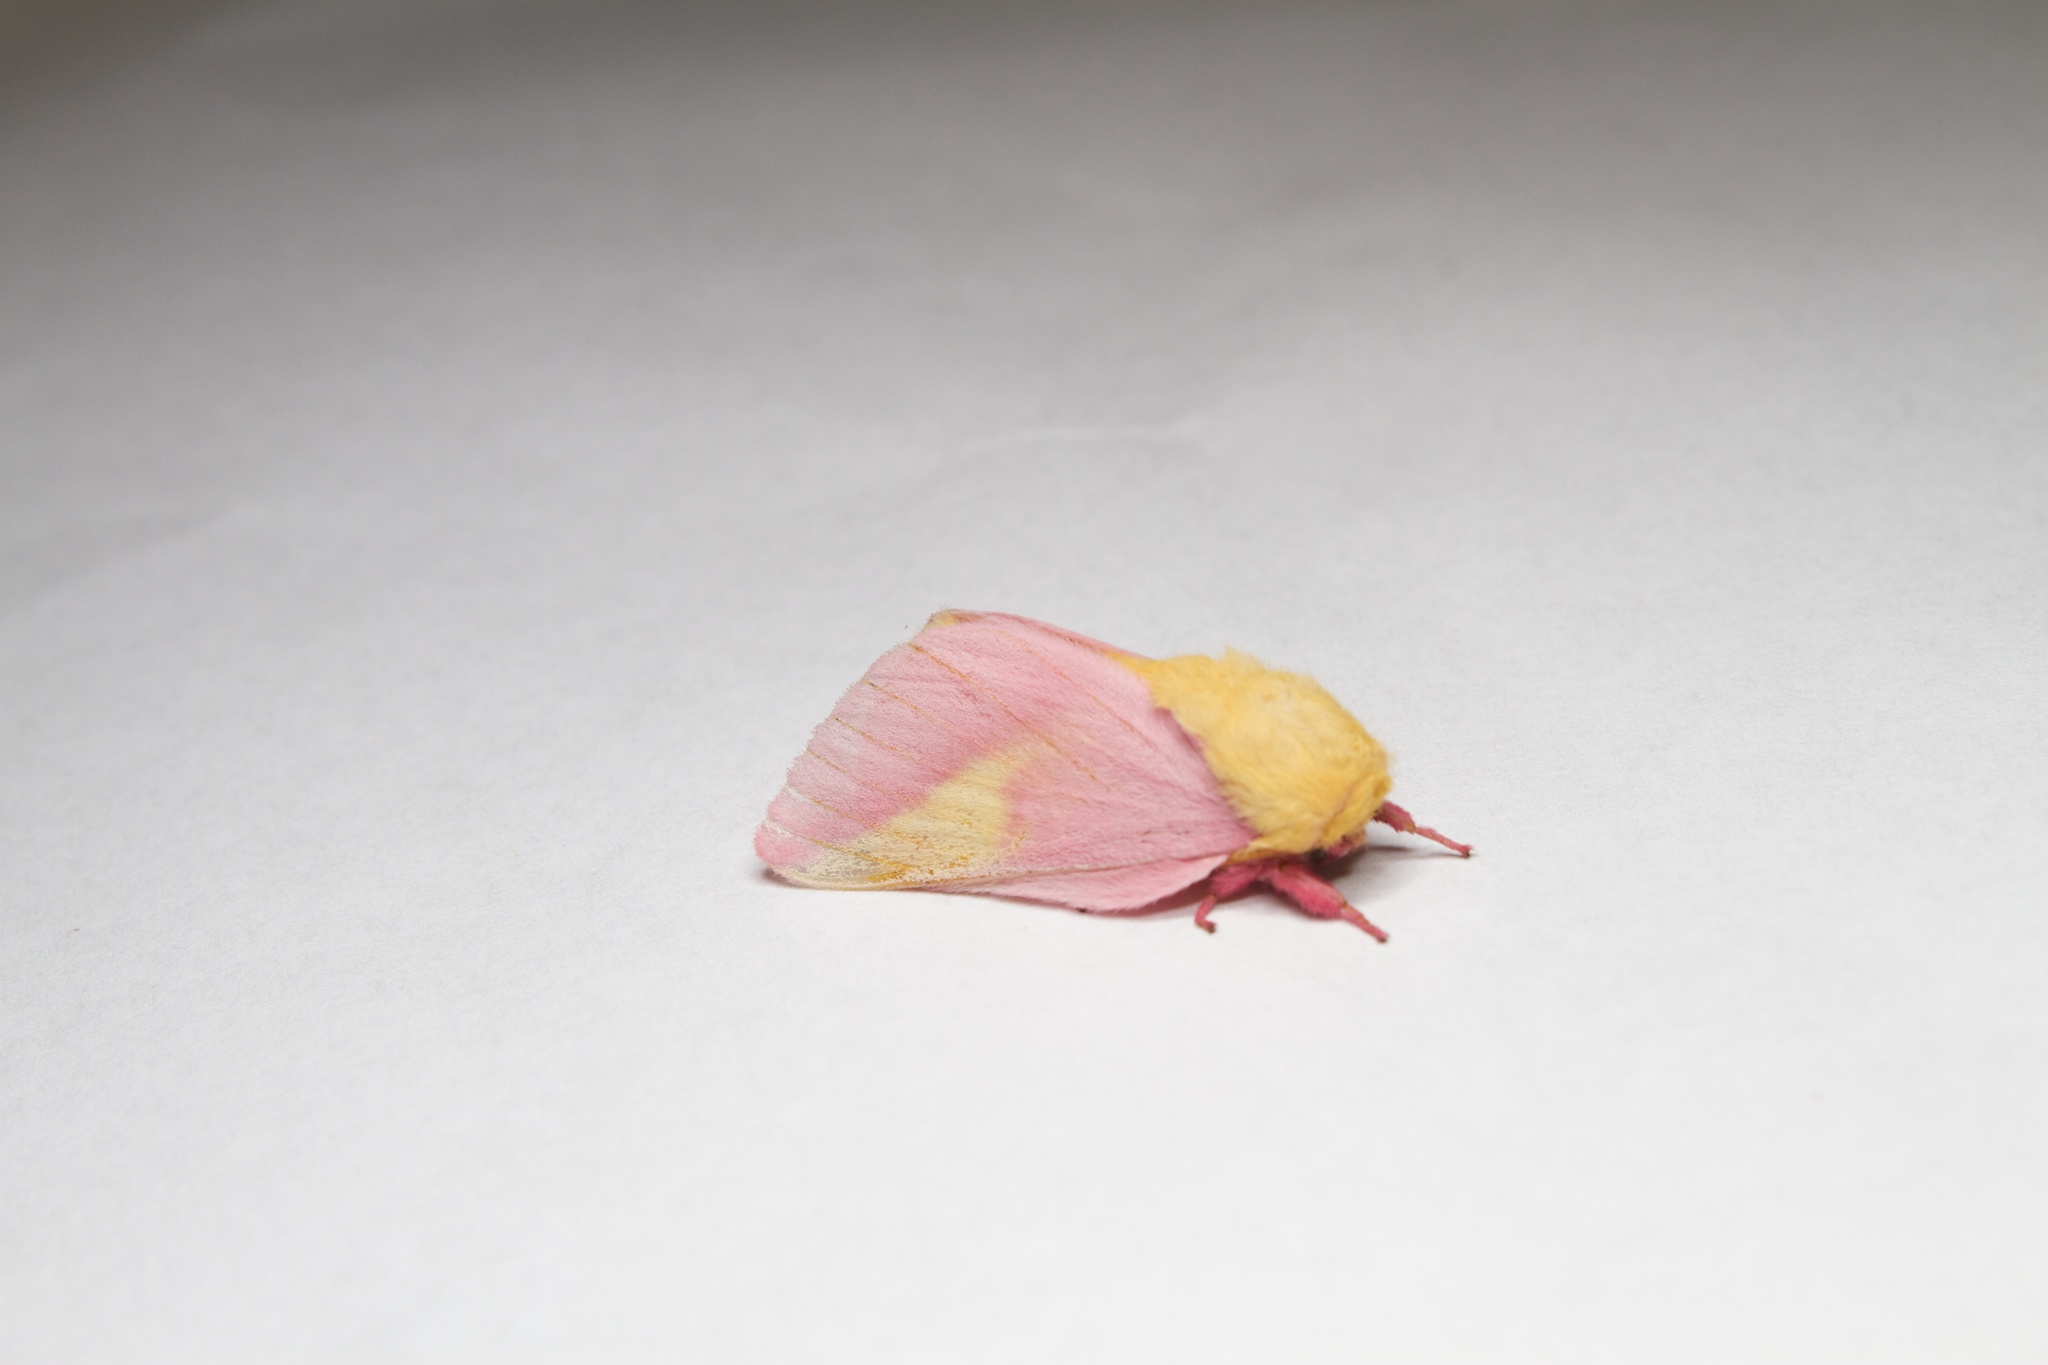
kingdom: Animalia
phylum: Arthropoda
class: Insecta
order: Lepidoptera
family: Saturniidae
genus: Dryocampa
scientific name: Dryocampa rubicunda
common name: Rosy maple moth
